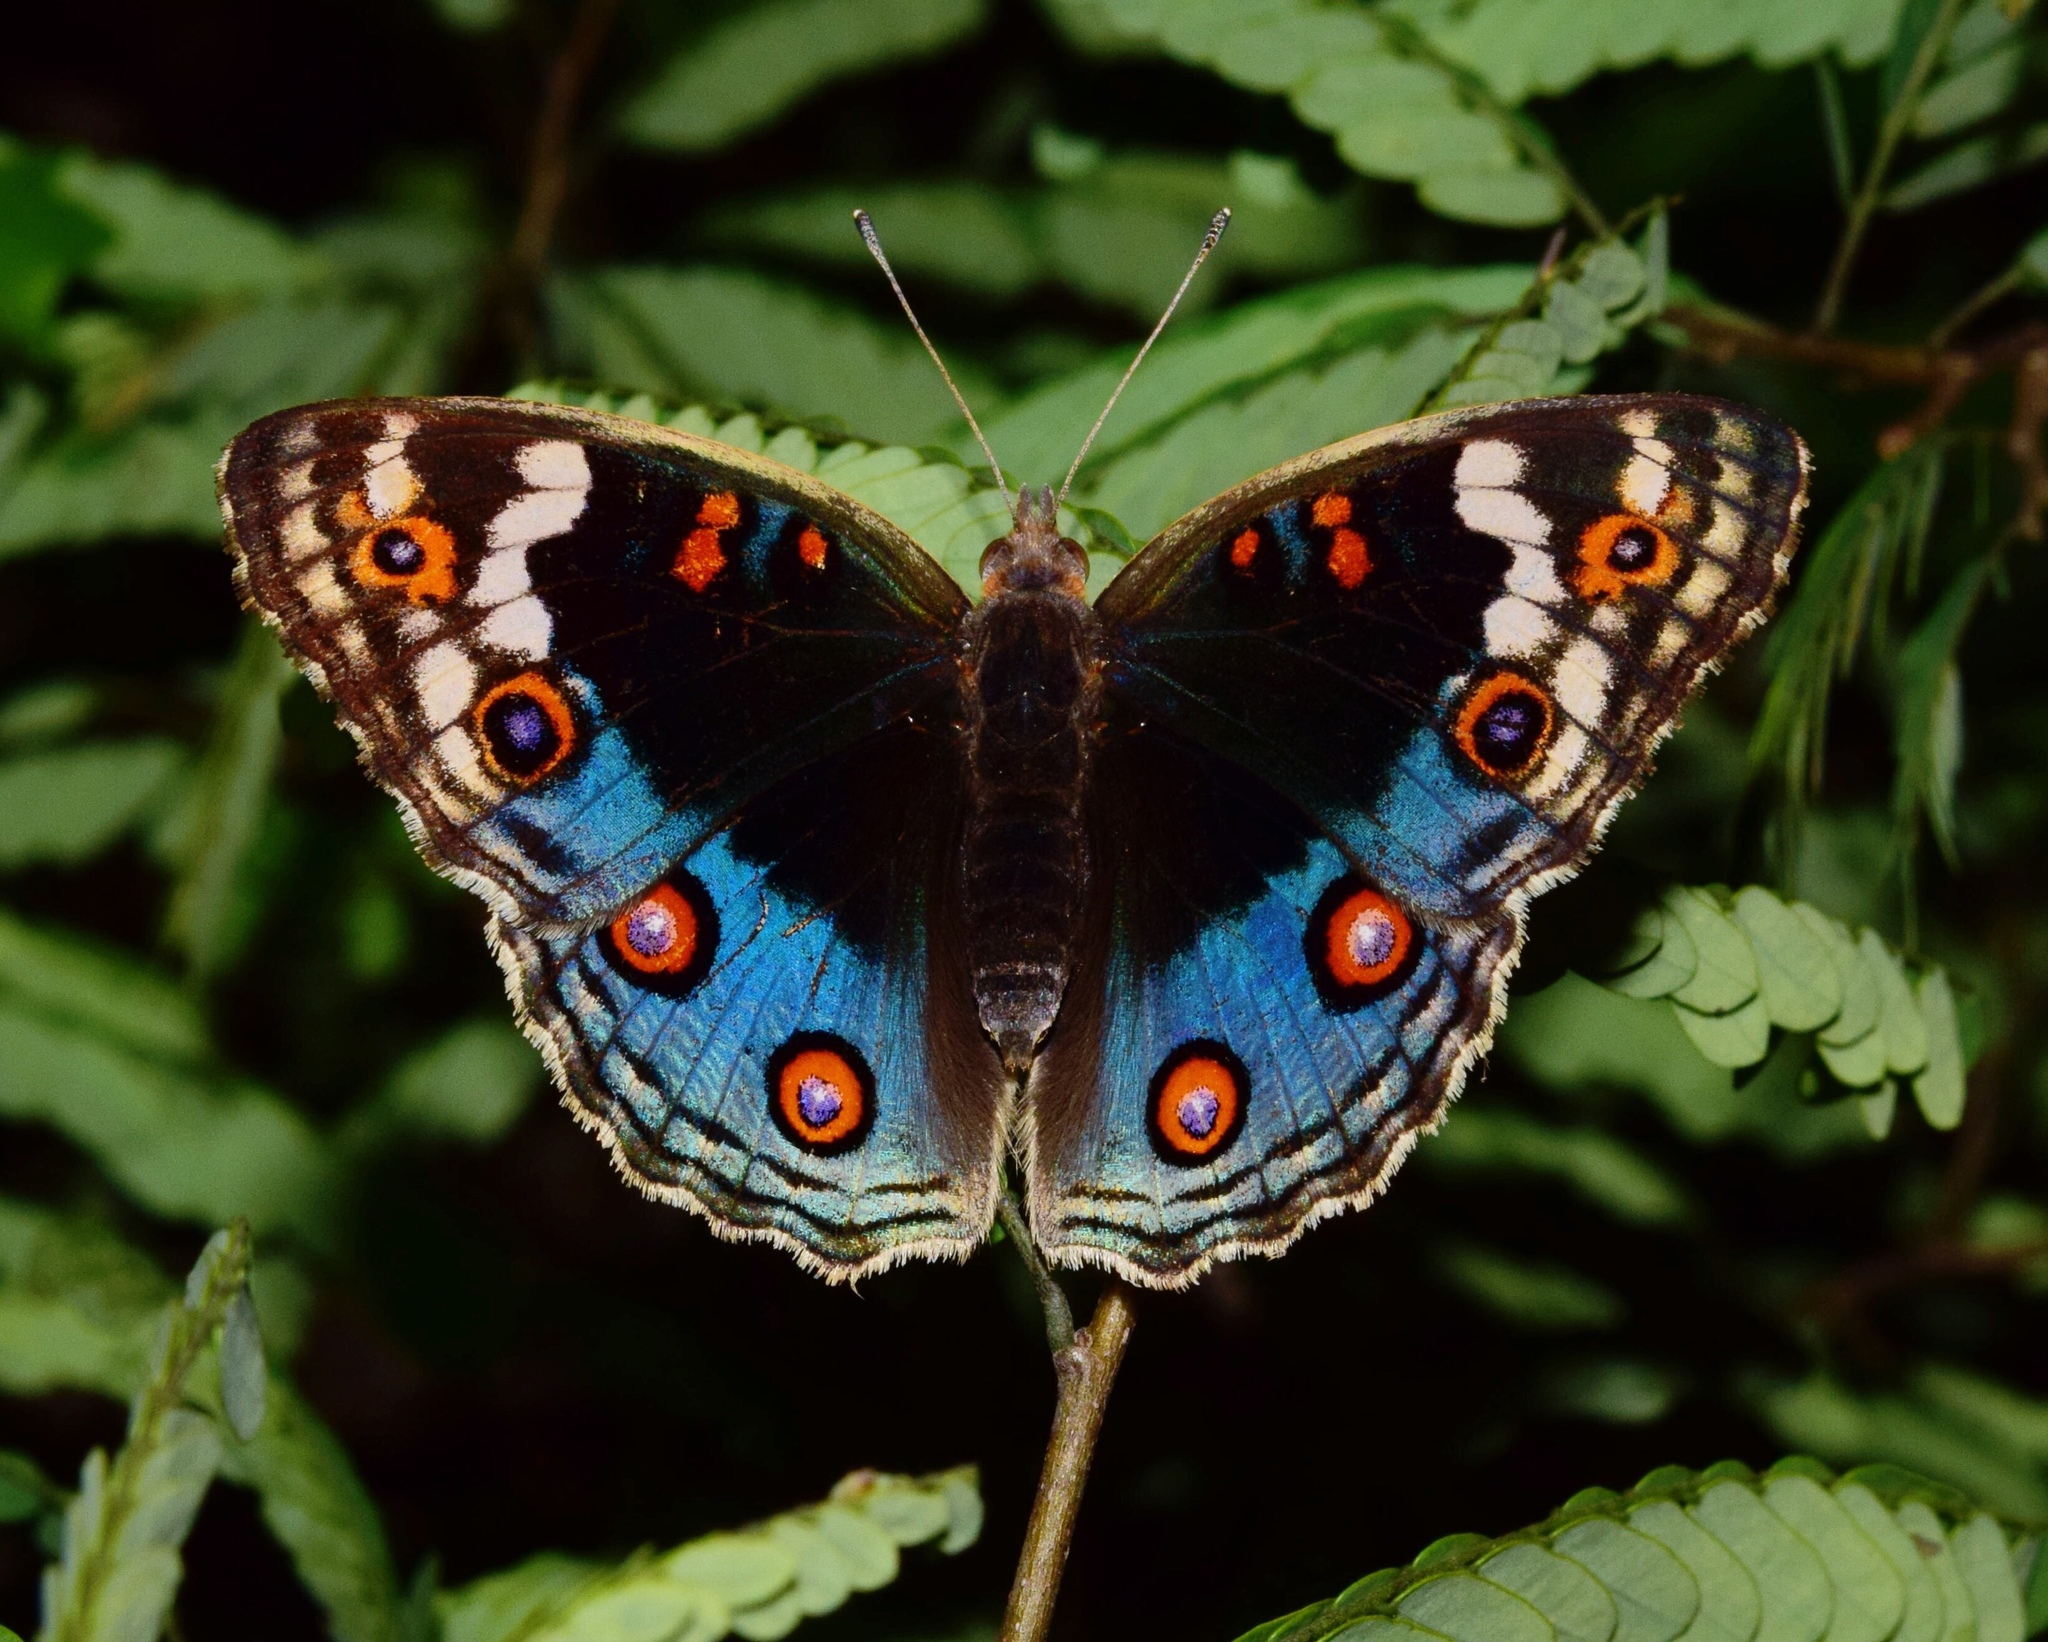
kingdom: Animalia
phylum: Arthropoda
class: Insecta
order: Lepidoptera
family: Nymphalidae
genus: Junonia
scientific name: Junonia orithya
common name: Blue pansy
